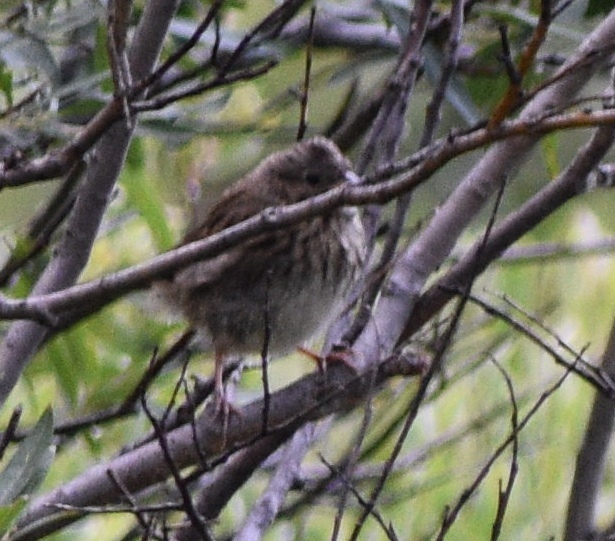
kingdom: Animalia
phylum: Chordata
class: Aves
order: Passeriformes
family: Passerellidae
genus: Melospiza
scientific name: Melospiza lincolnii
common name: Lincoln's sparrow
